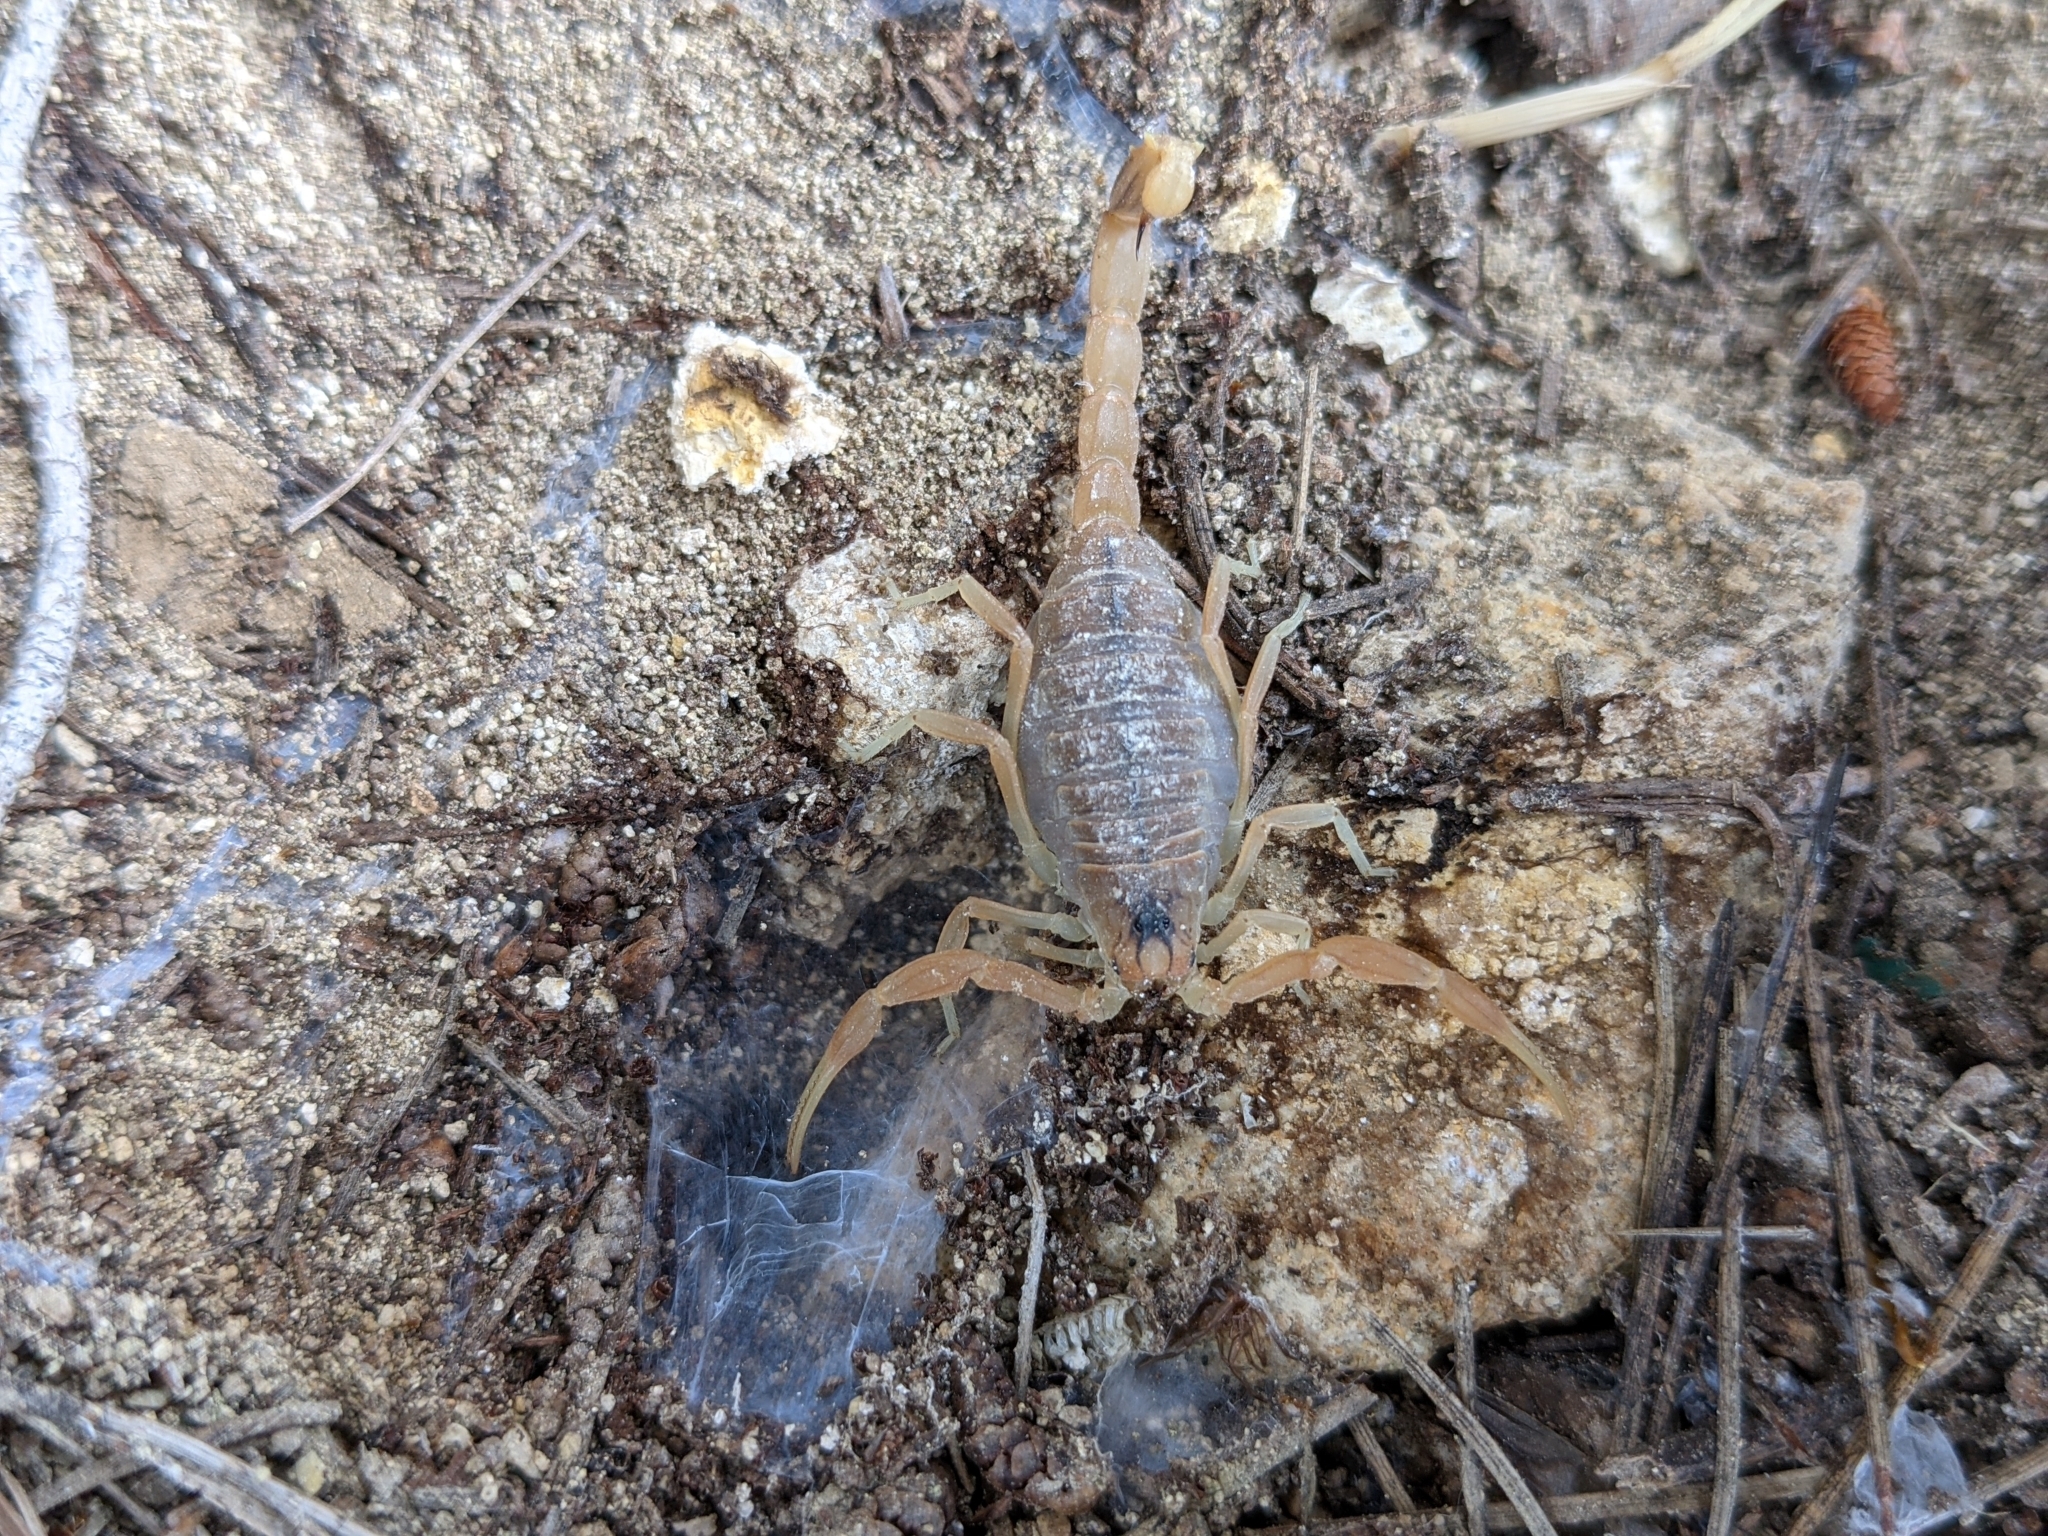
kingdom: Animalia
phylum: Arthropoda
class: Arachnida
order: Scorpiones
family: Buthidae
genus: Buthus
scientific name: Buthus occitanus
